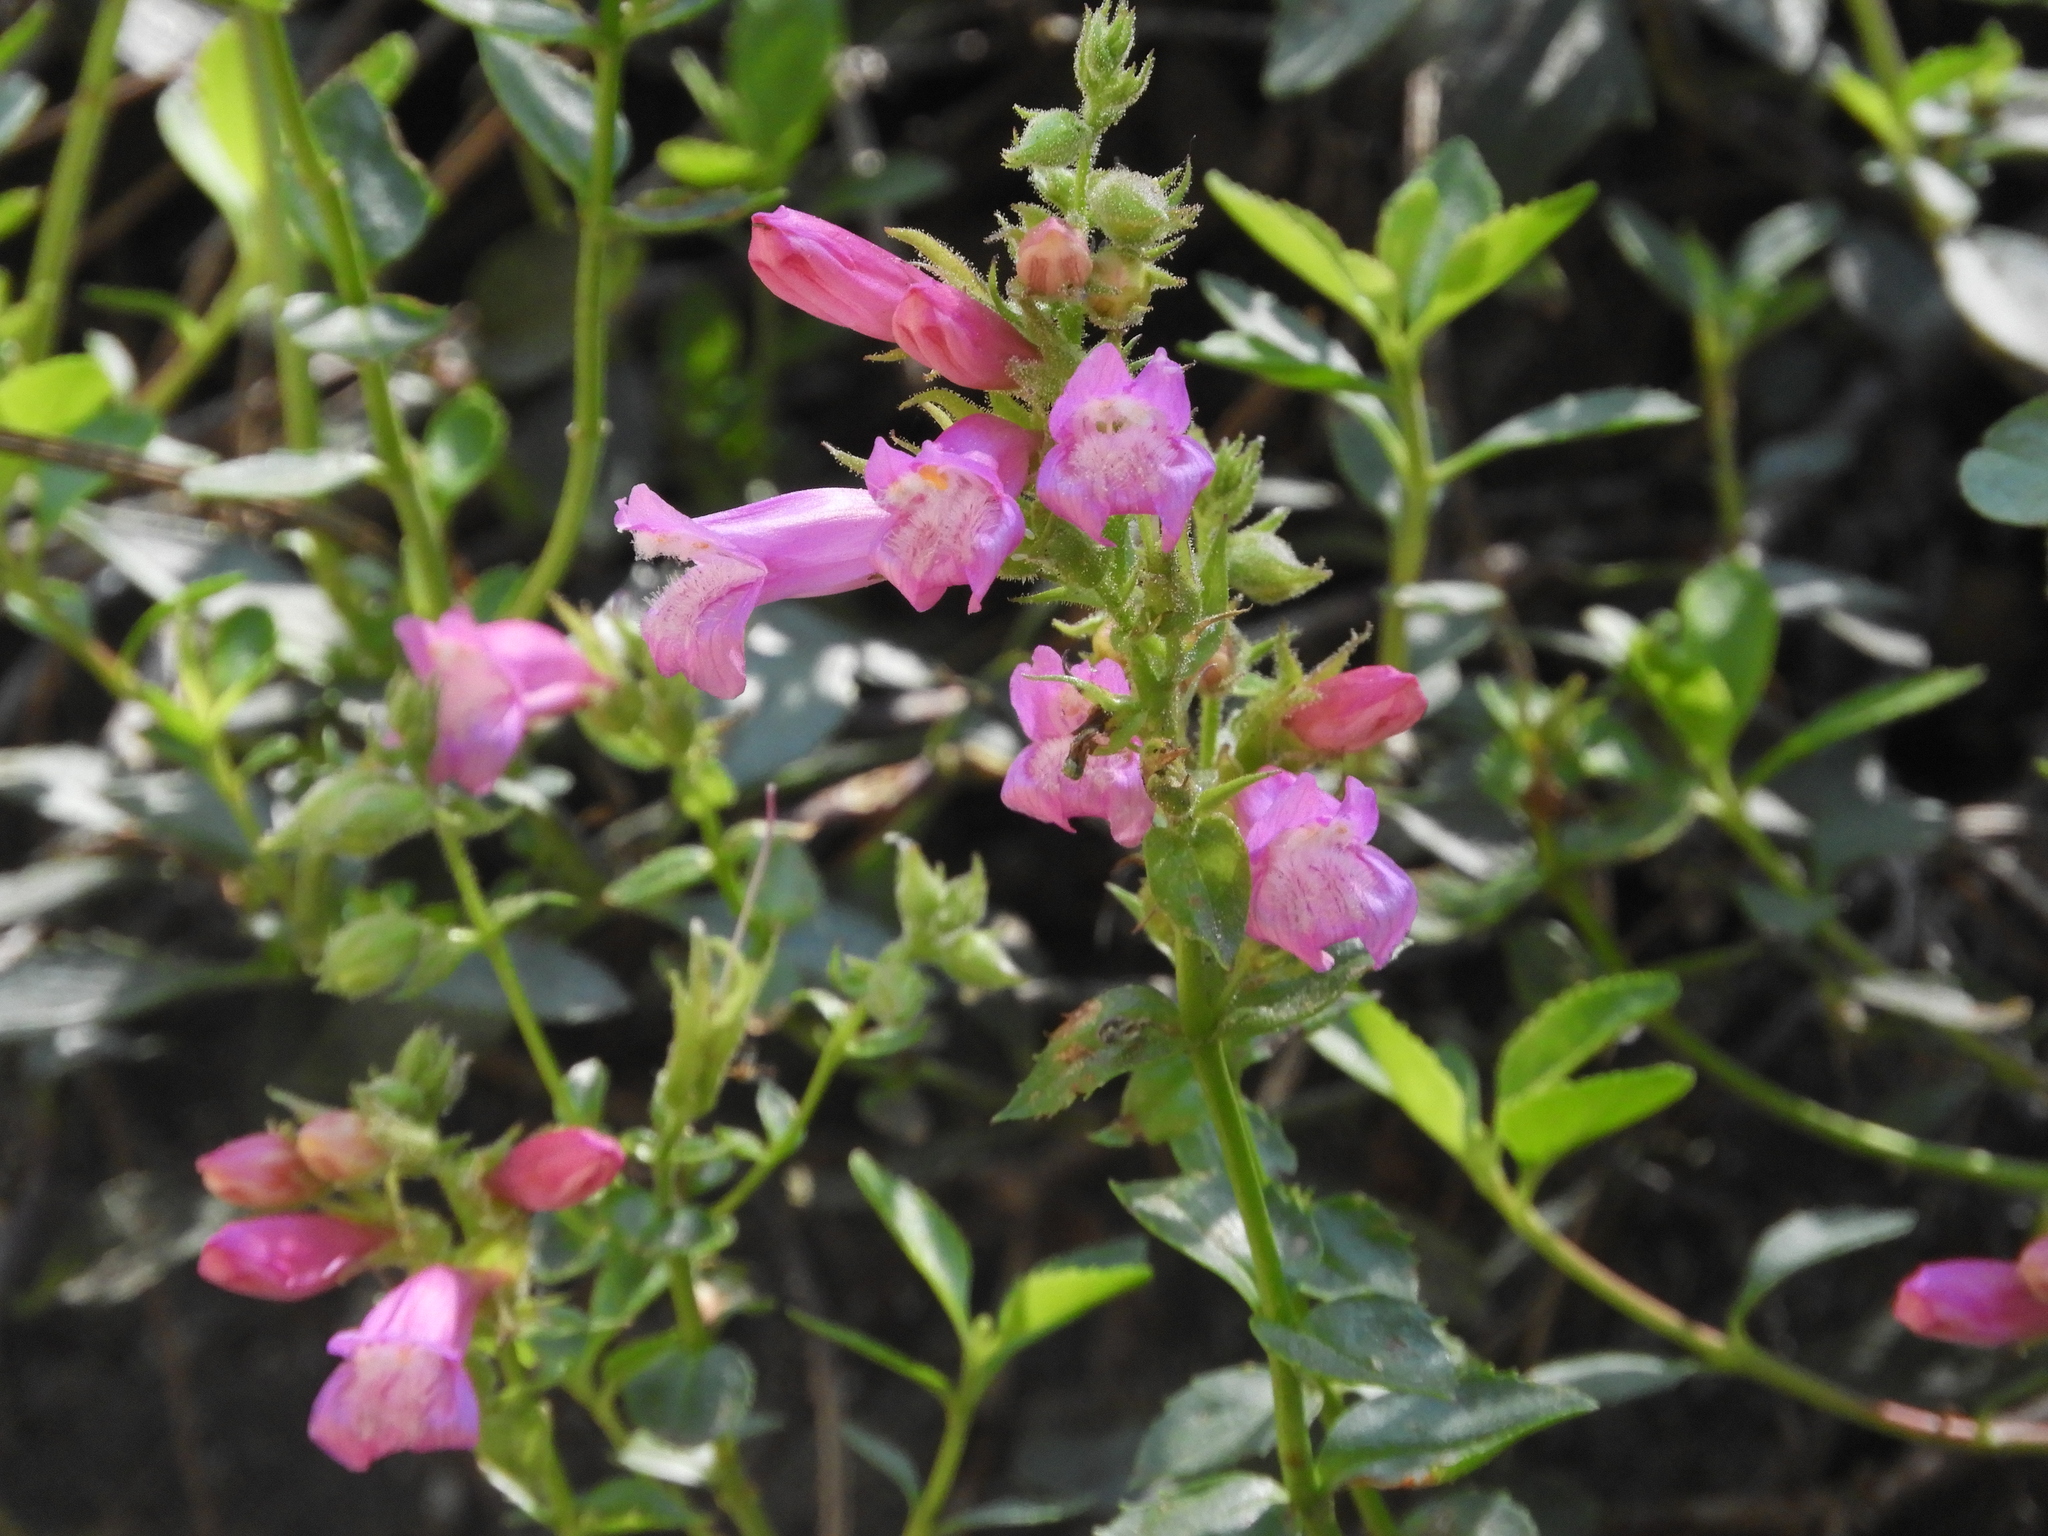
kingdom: Plantae
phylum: Tracheophyta
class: Magnoliopsida
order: Lamiales
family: Plantaginaceae
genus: Penstemon
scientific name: Penstemon newberryi
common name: Mountain-pride
